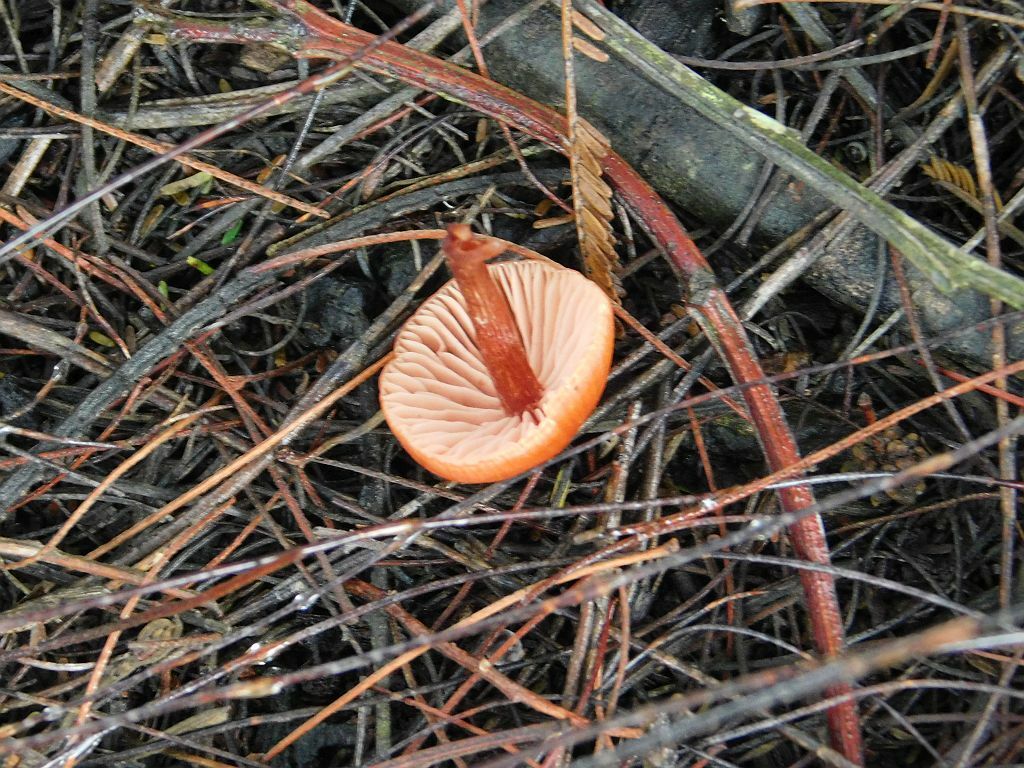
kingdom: Fungi
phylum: Basidiomycota
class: Agaricomycetes
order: Agaricales
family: Hydnangiaceae
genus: Laccaria
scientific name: Laccaria laccata
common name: Deceiver
